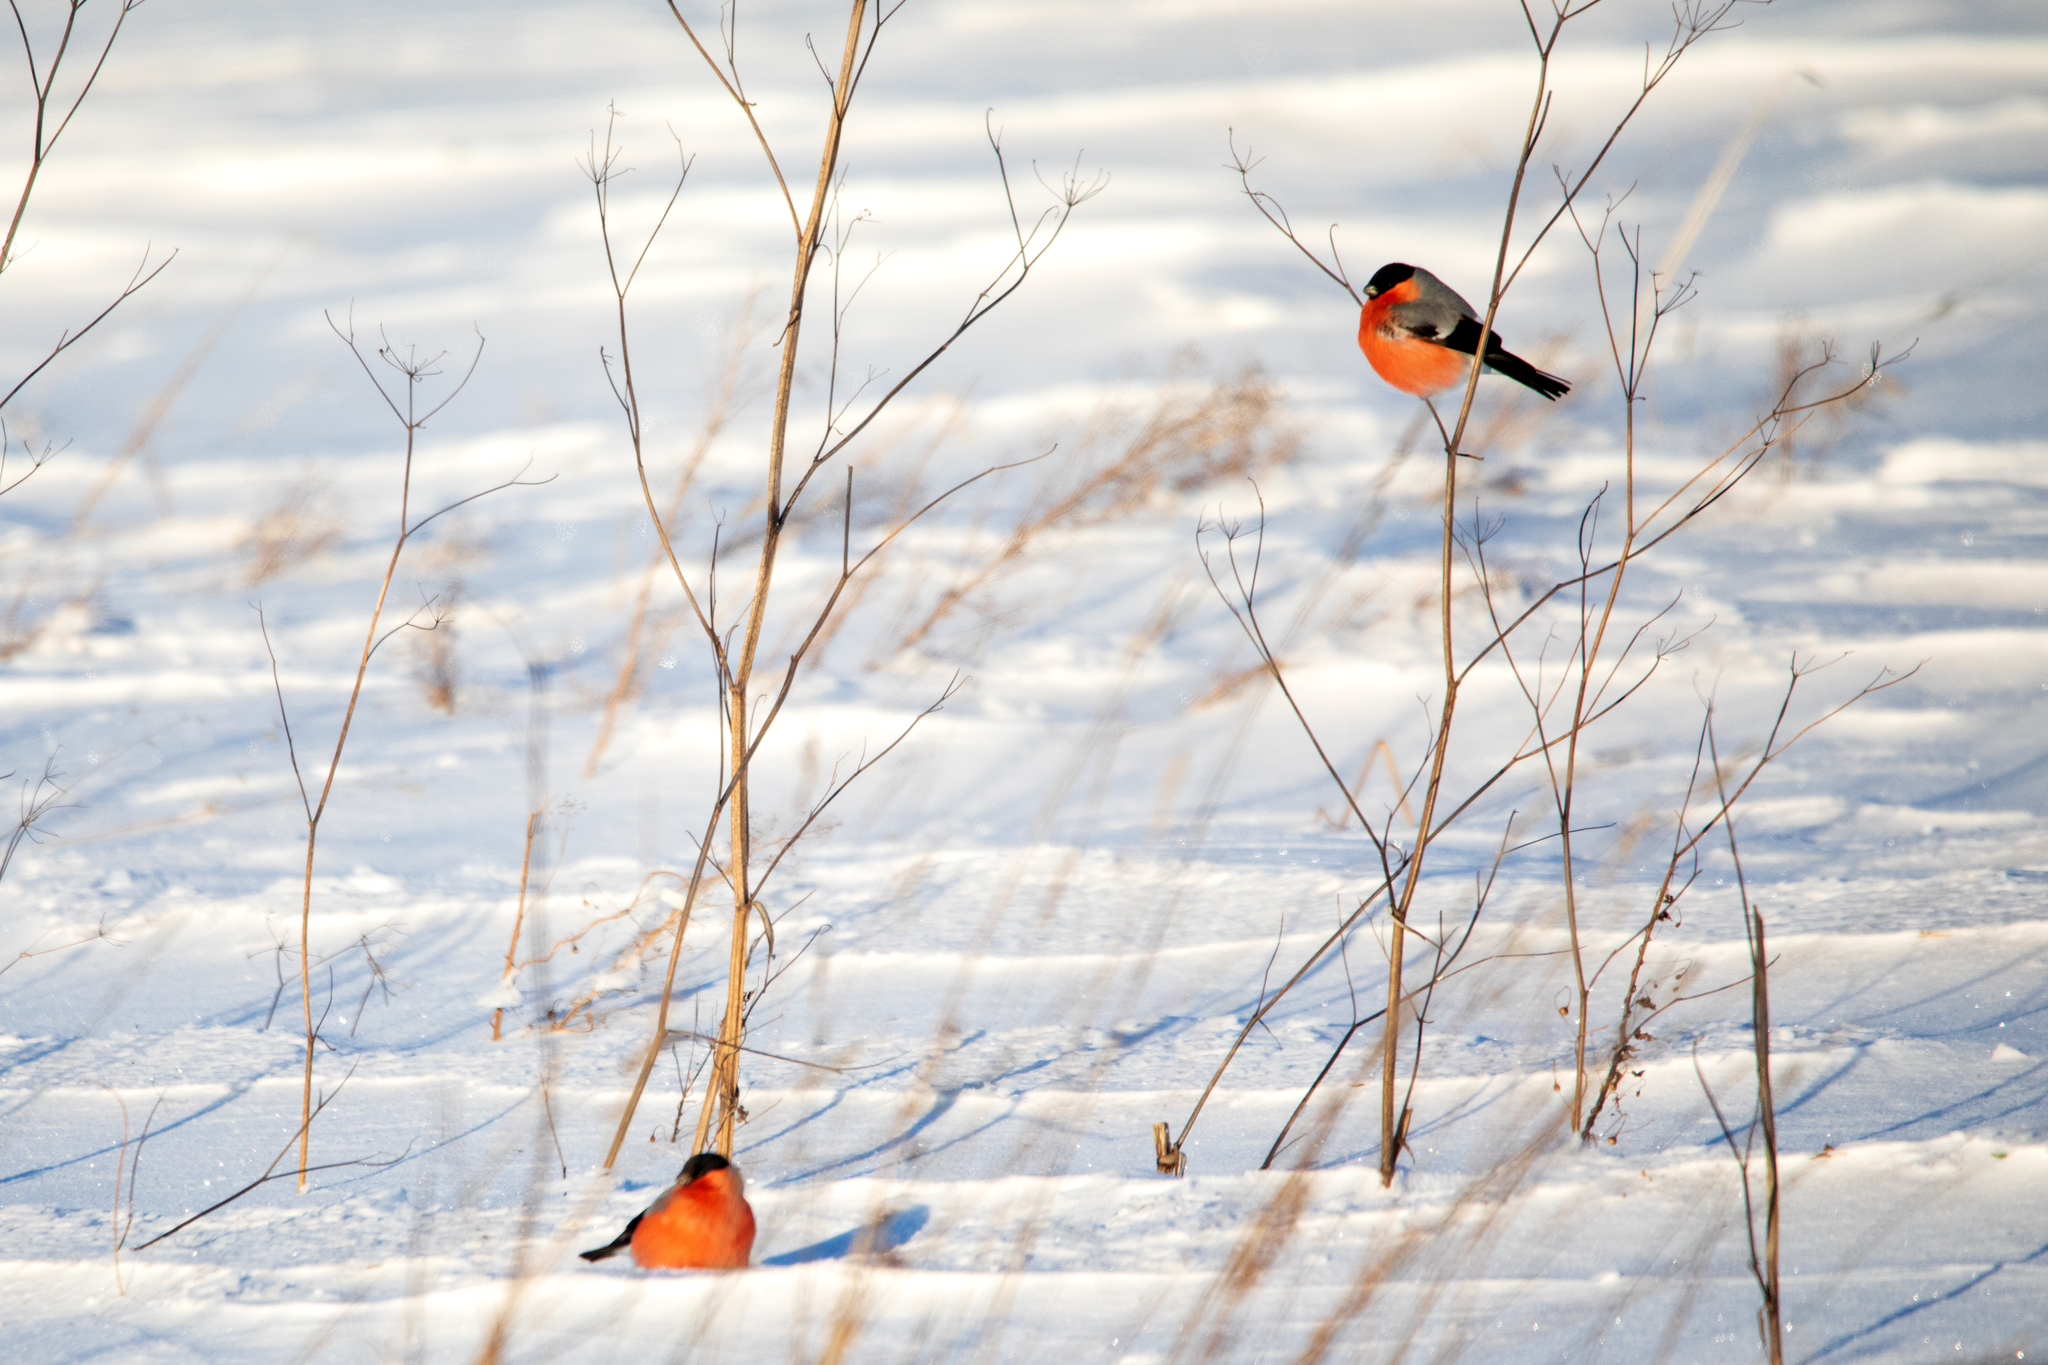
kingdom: Animalia
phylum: Chordata
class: Aves
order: Passeriformes
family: Fringillidae
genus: Pyrrhula
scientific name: Pyrrhula pyrrhula
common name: Eurasian bullfinch
